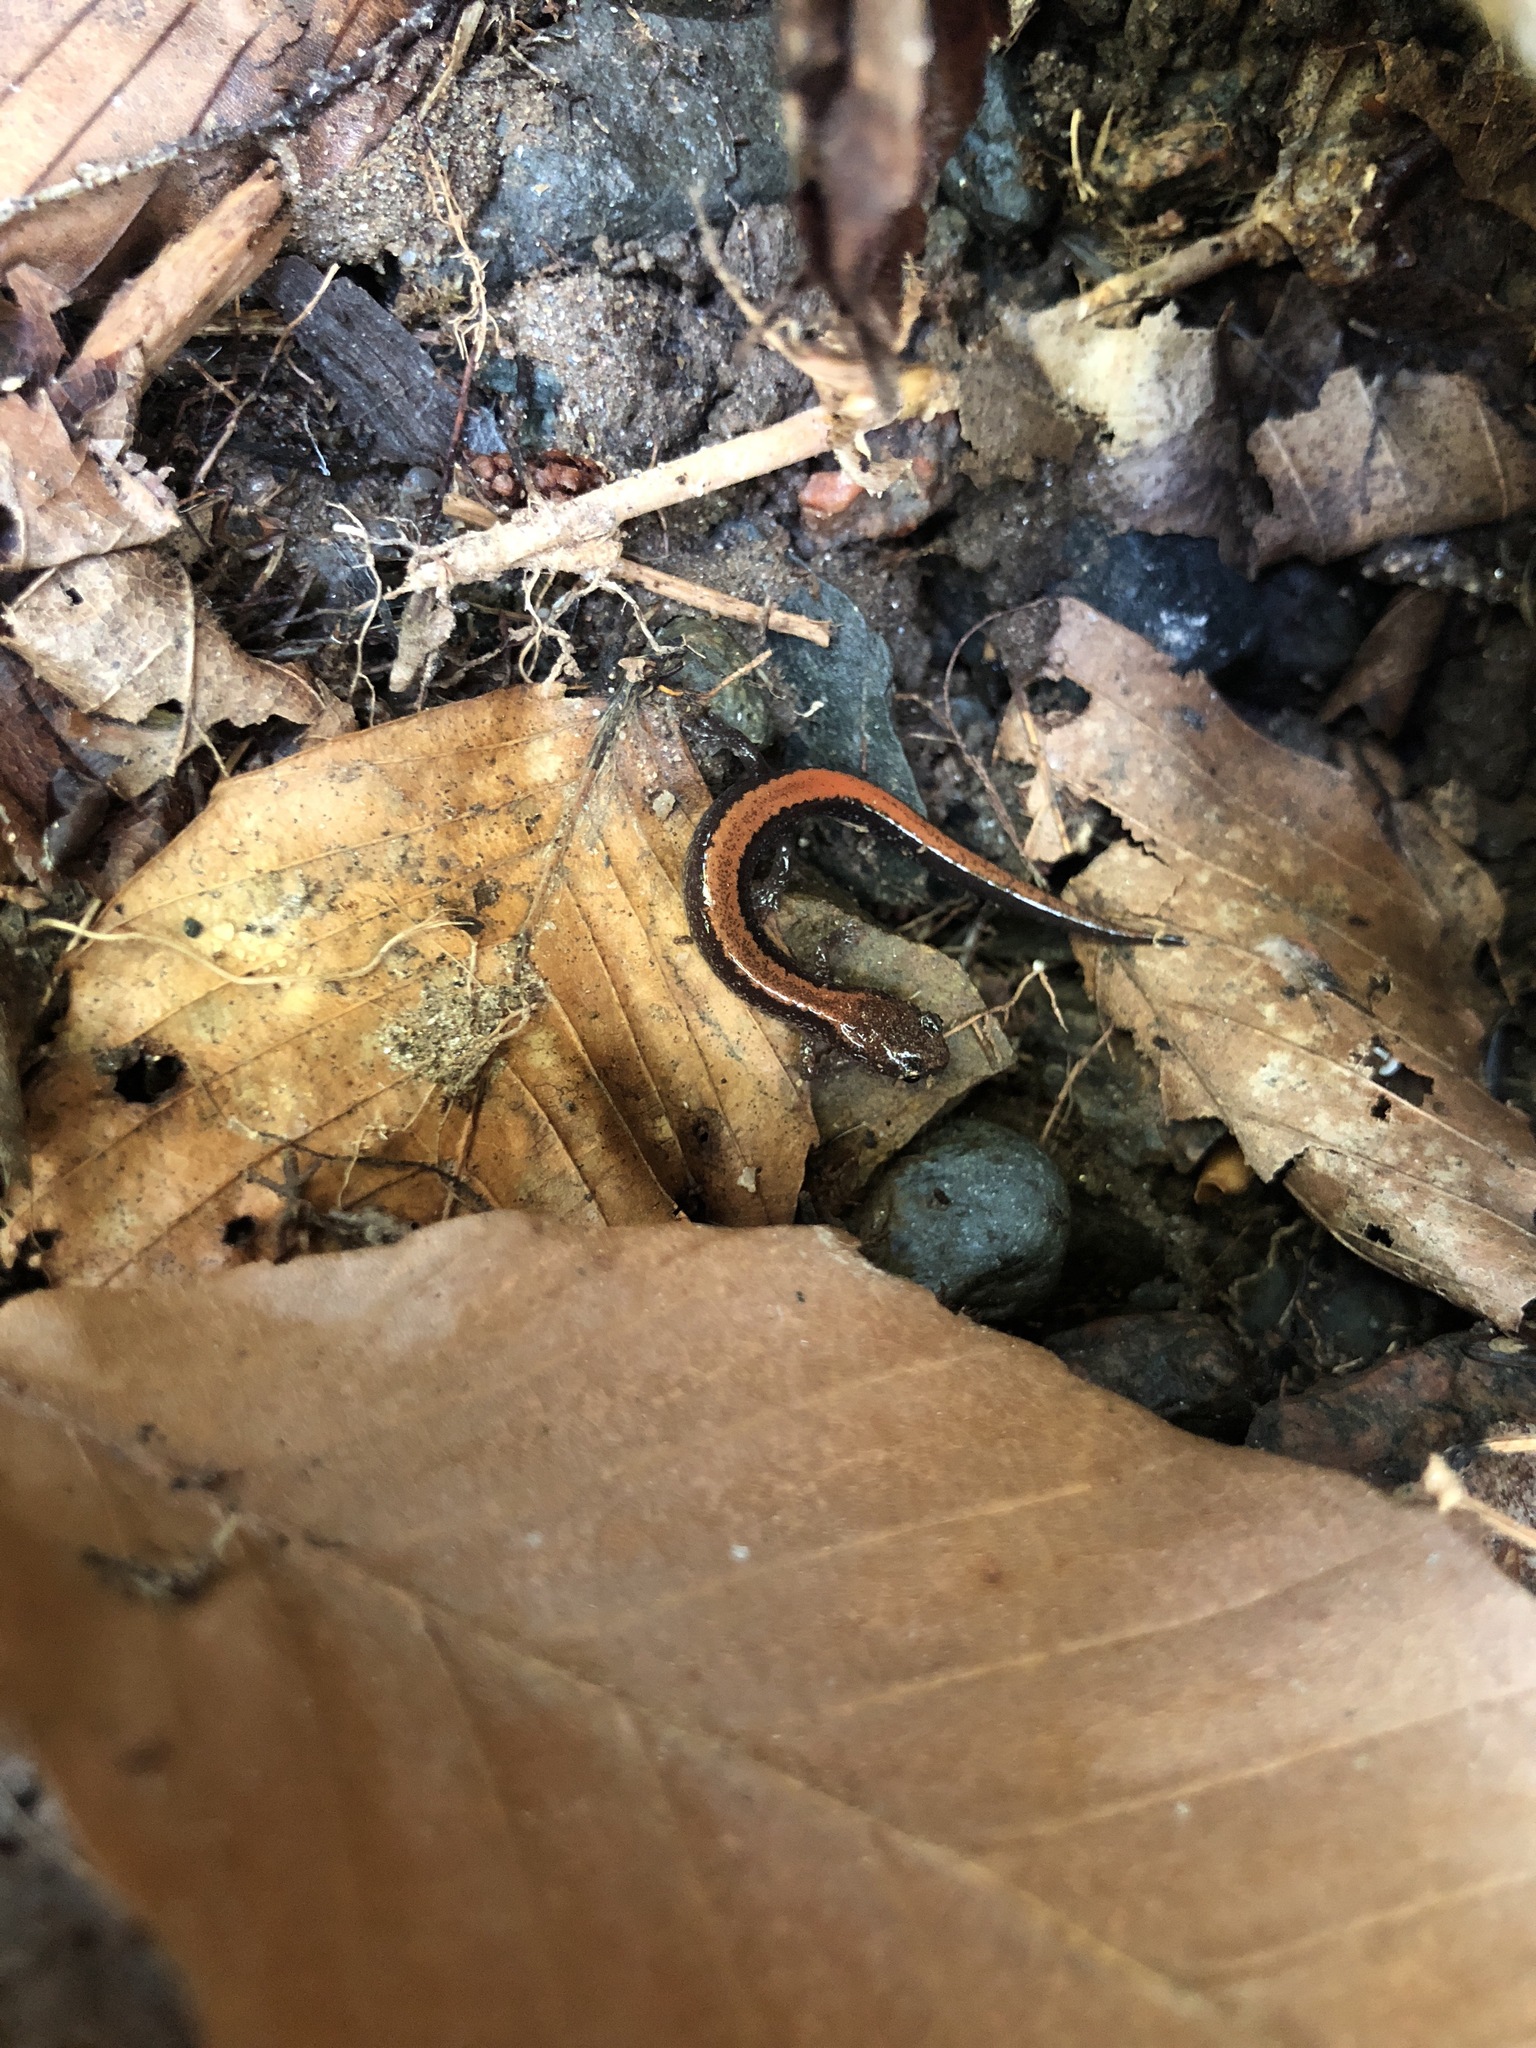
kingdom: Animalia
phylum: Chordata
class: Amphibia
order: Caudata
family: Plethodontidae
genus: Plethodon
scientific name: Plethodon cinereus
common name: Redback salamander
